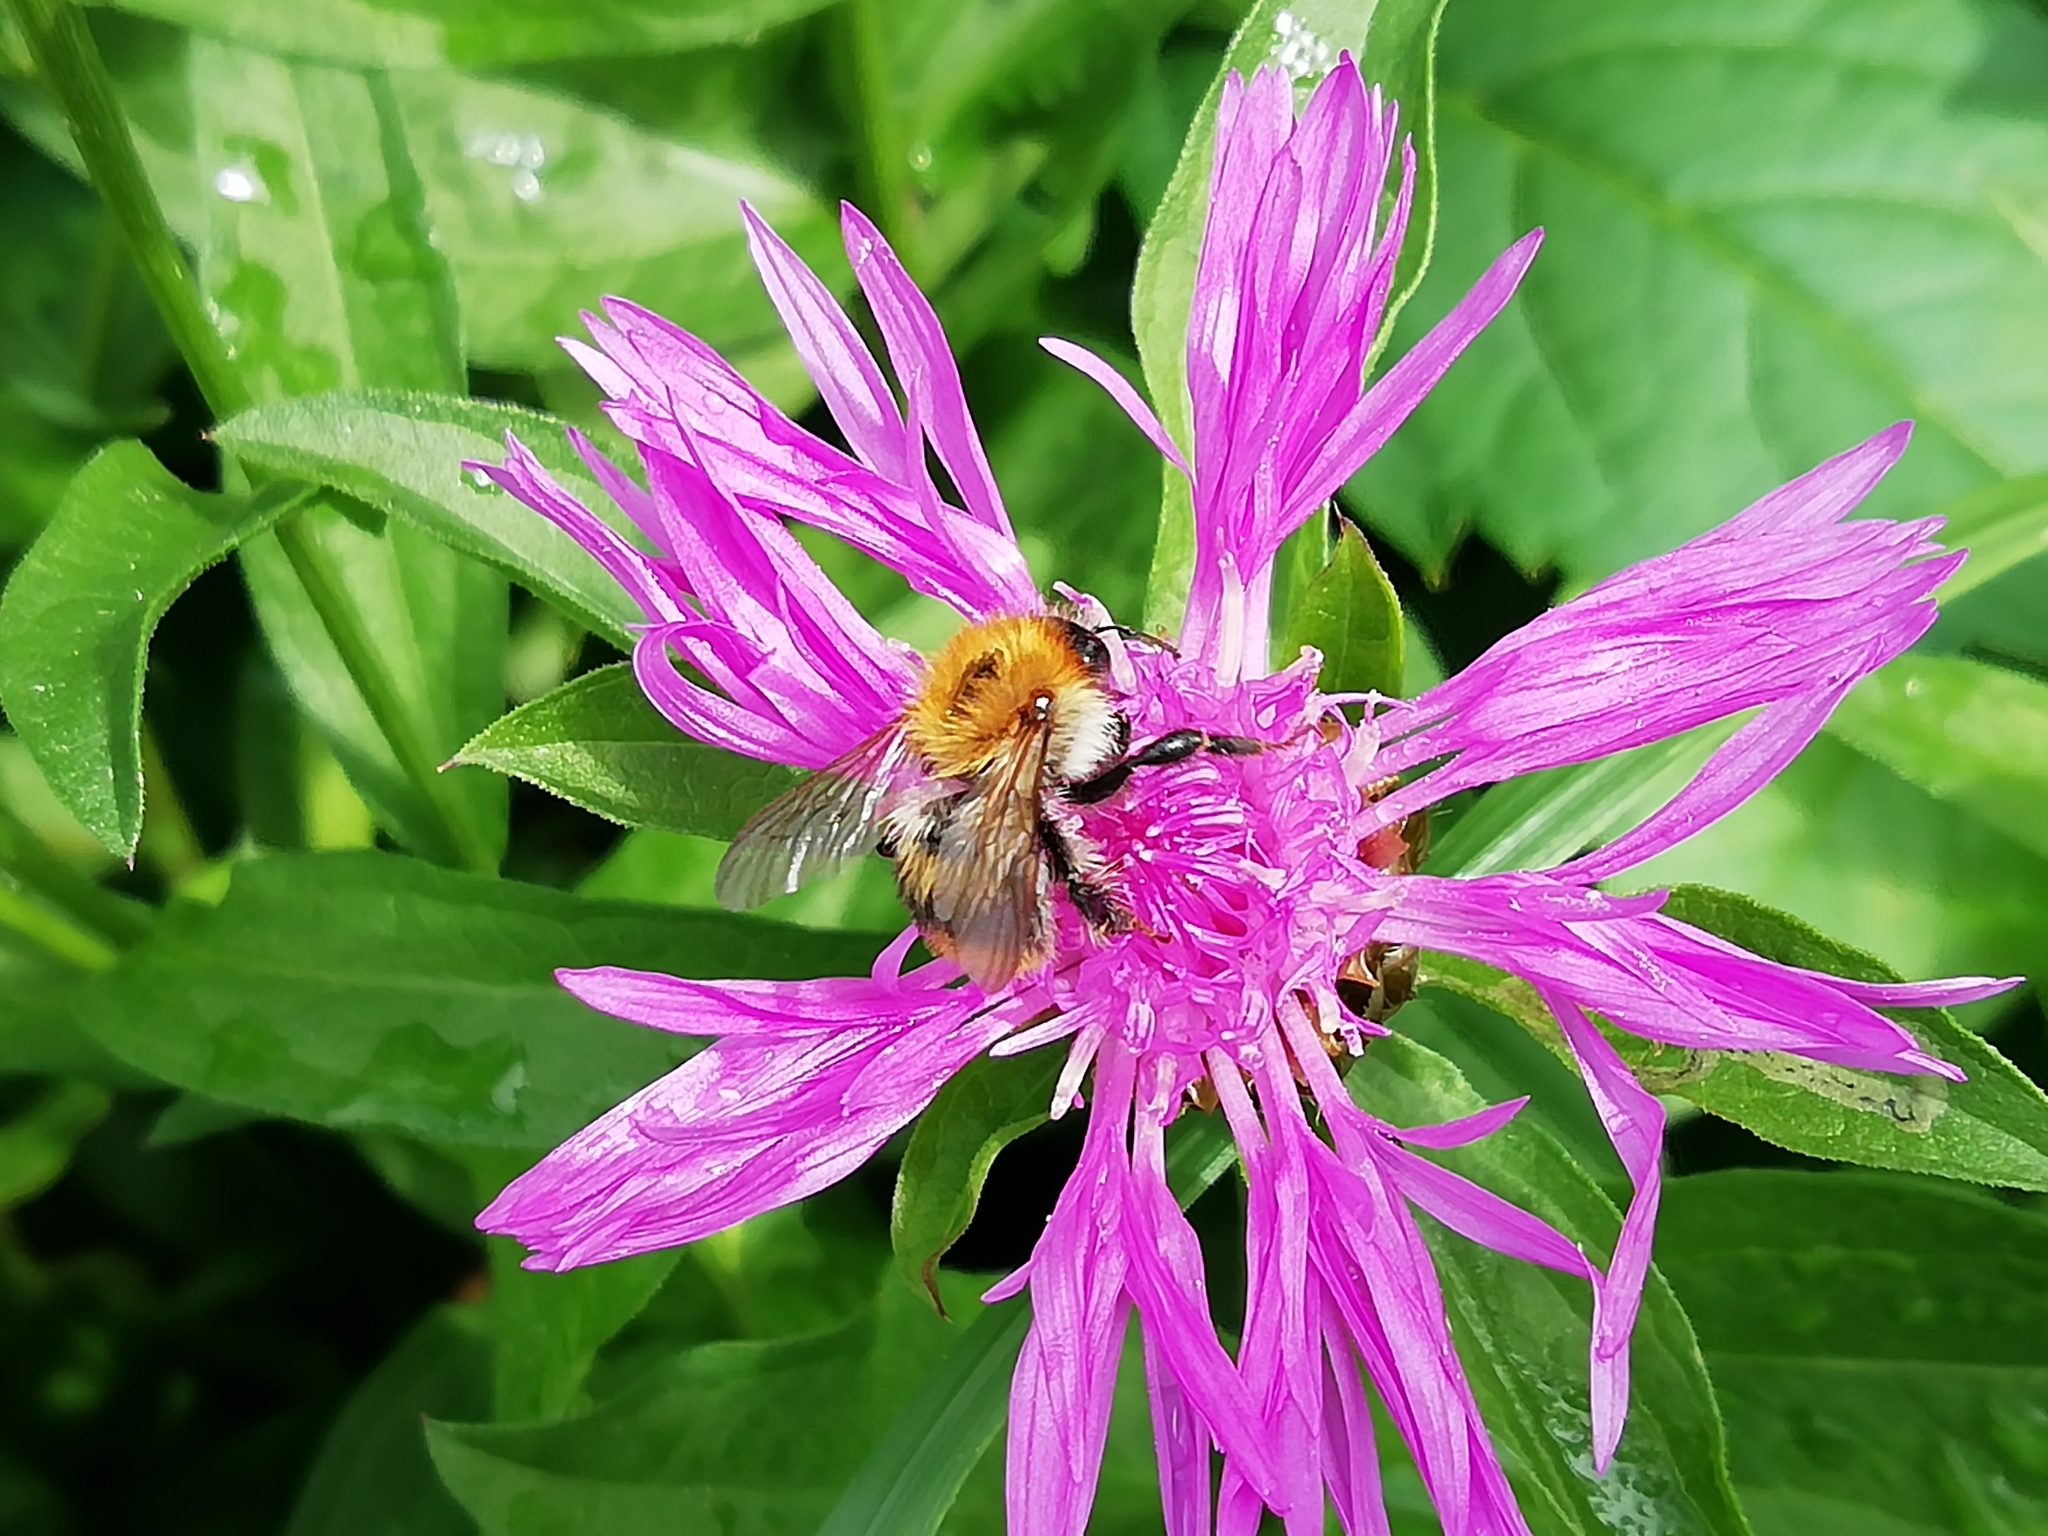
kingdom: Animalia
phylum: Arthropoda
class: Insecta
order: Hymenoptera
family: Apidae
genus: Bombus
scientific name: Bombus pascuorum
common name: Common carder bee
